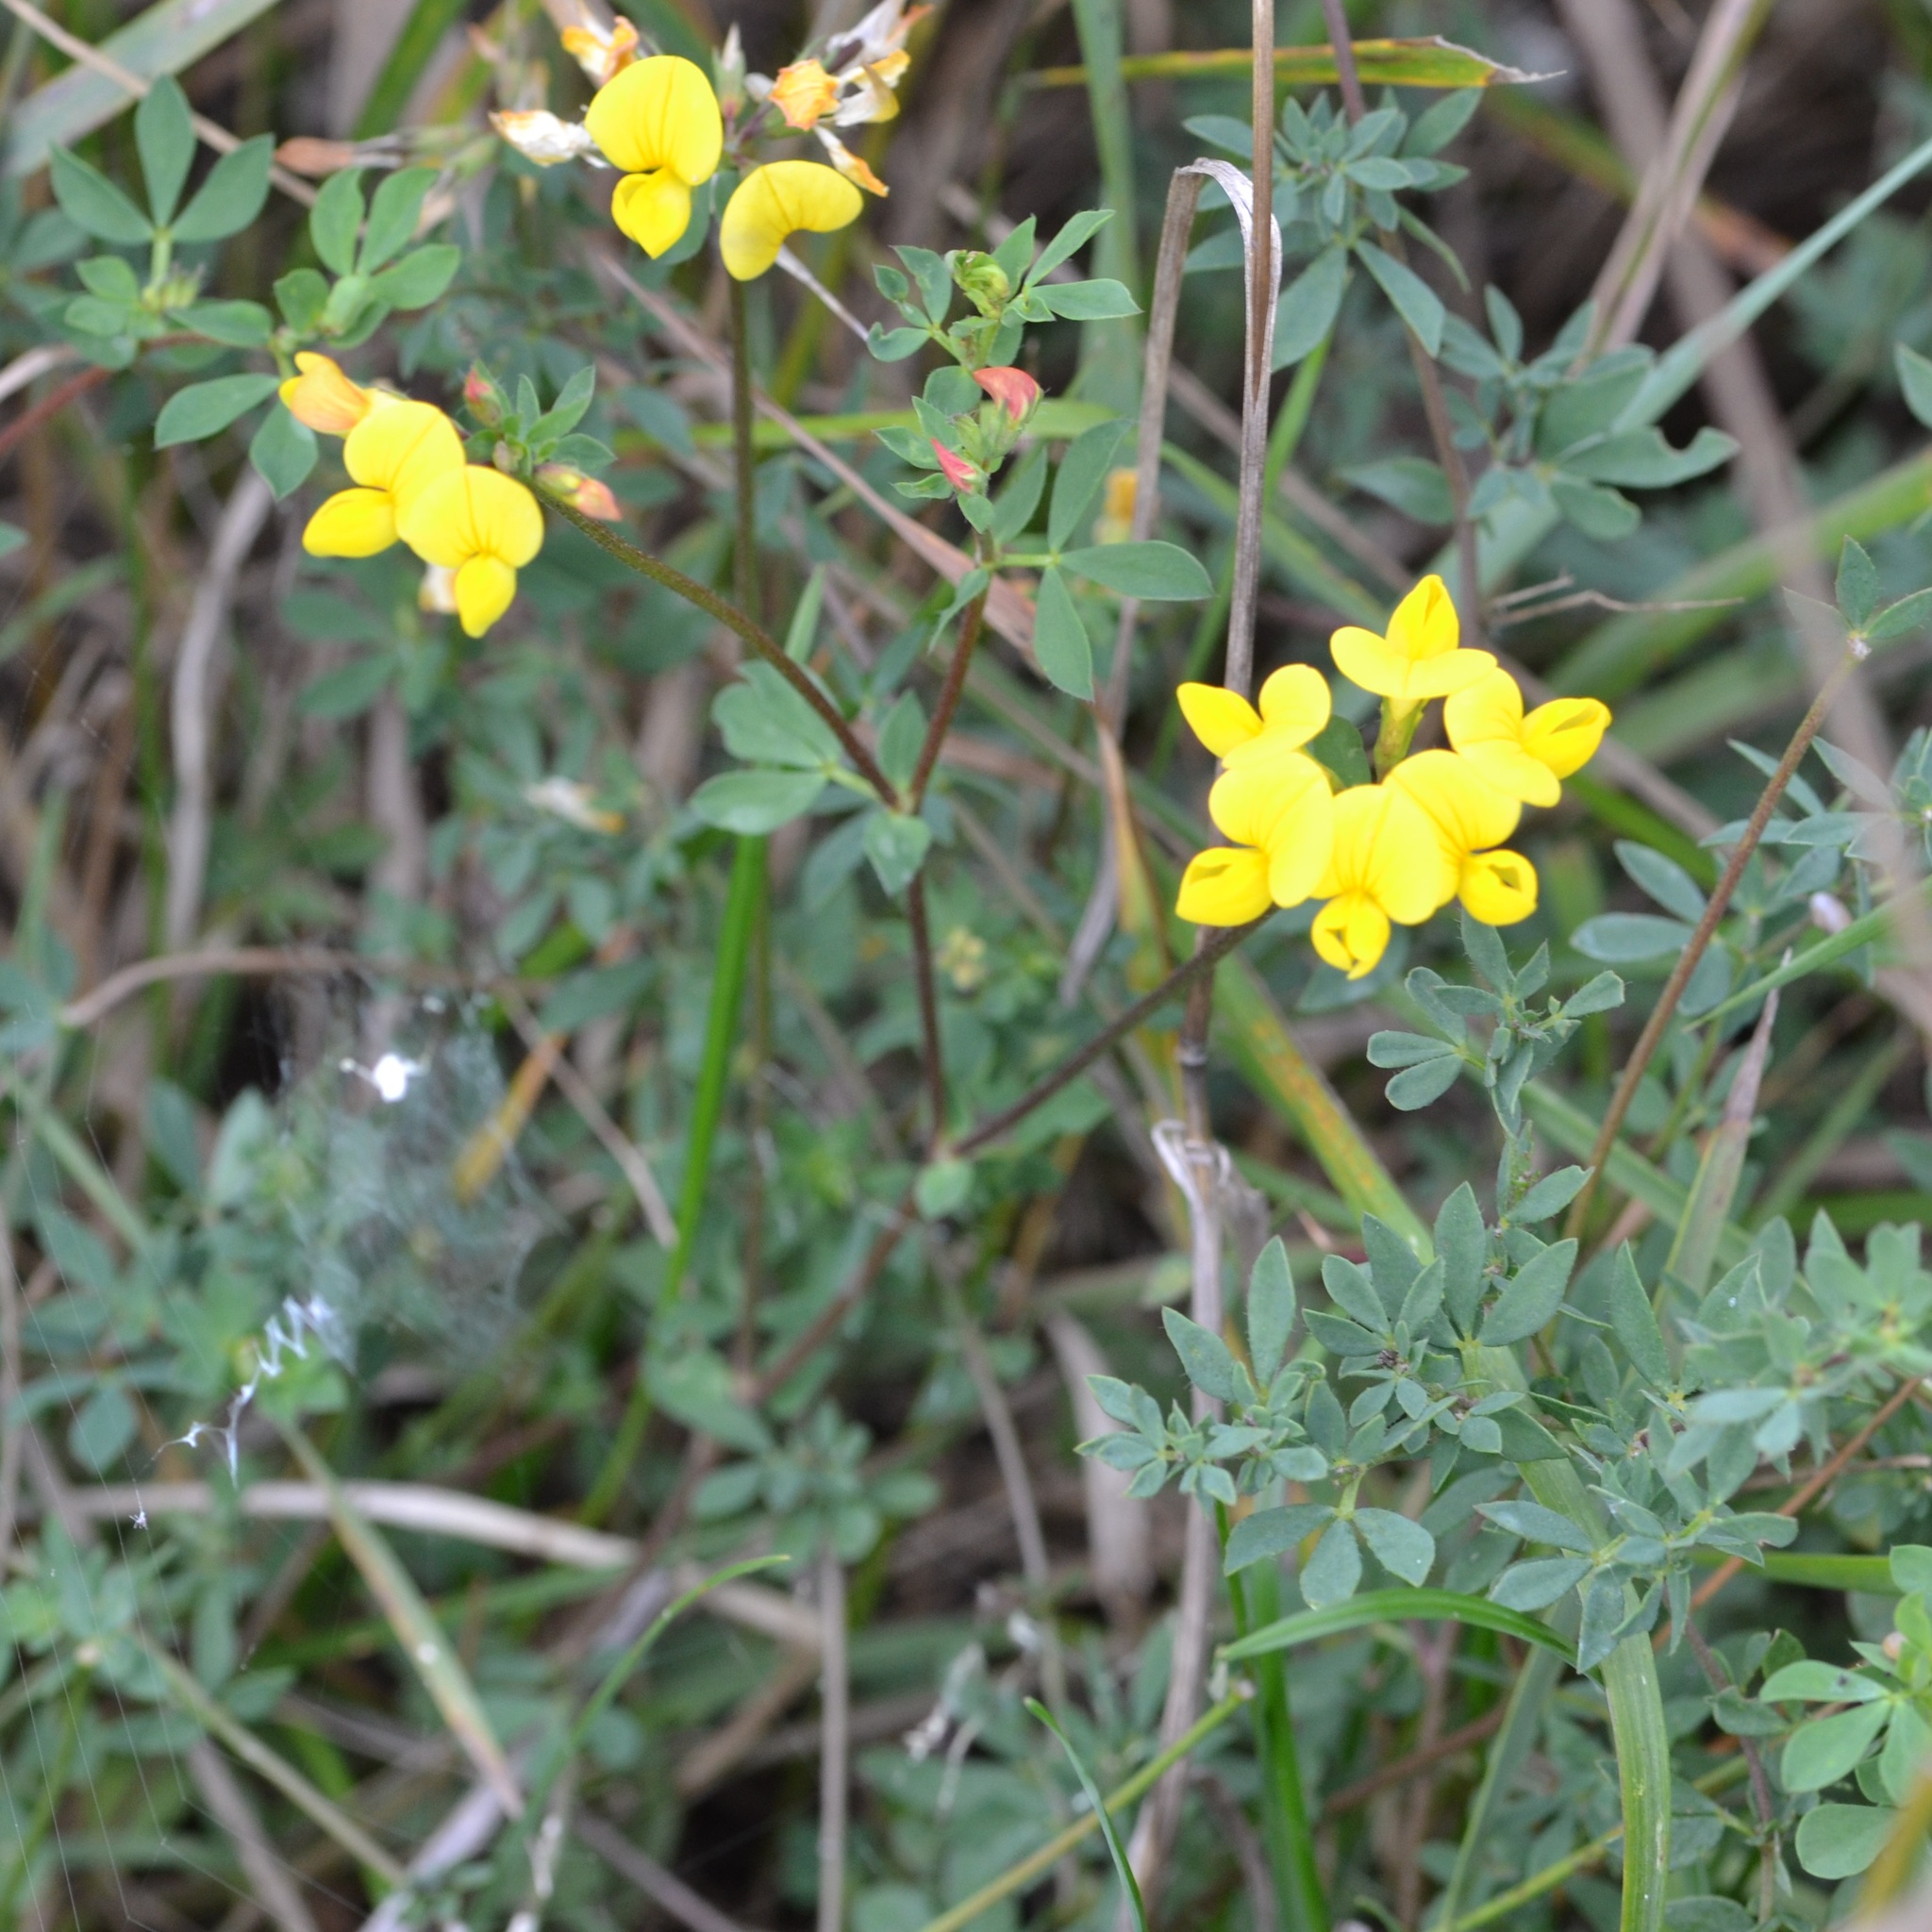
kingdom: Plantae
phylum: Tracheophyta
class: Magnoliopsida
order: Fabales
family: Fabaceae
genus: Lotus
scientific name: Lotus corniculatus
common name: Common bird's-foot-trefoil
